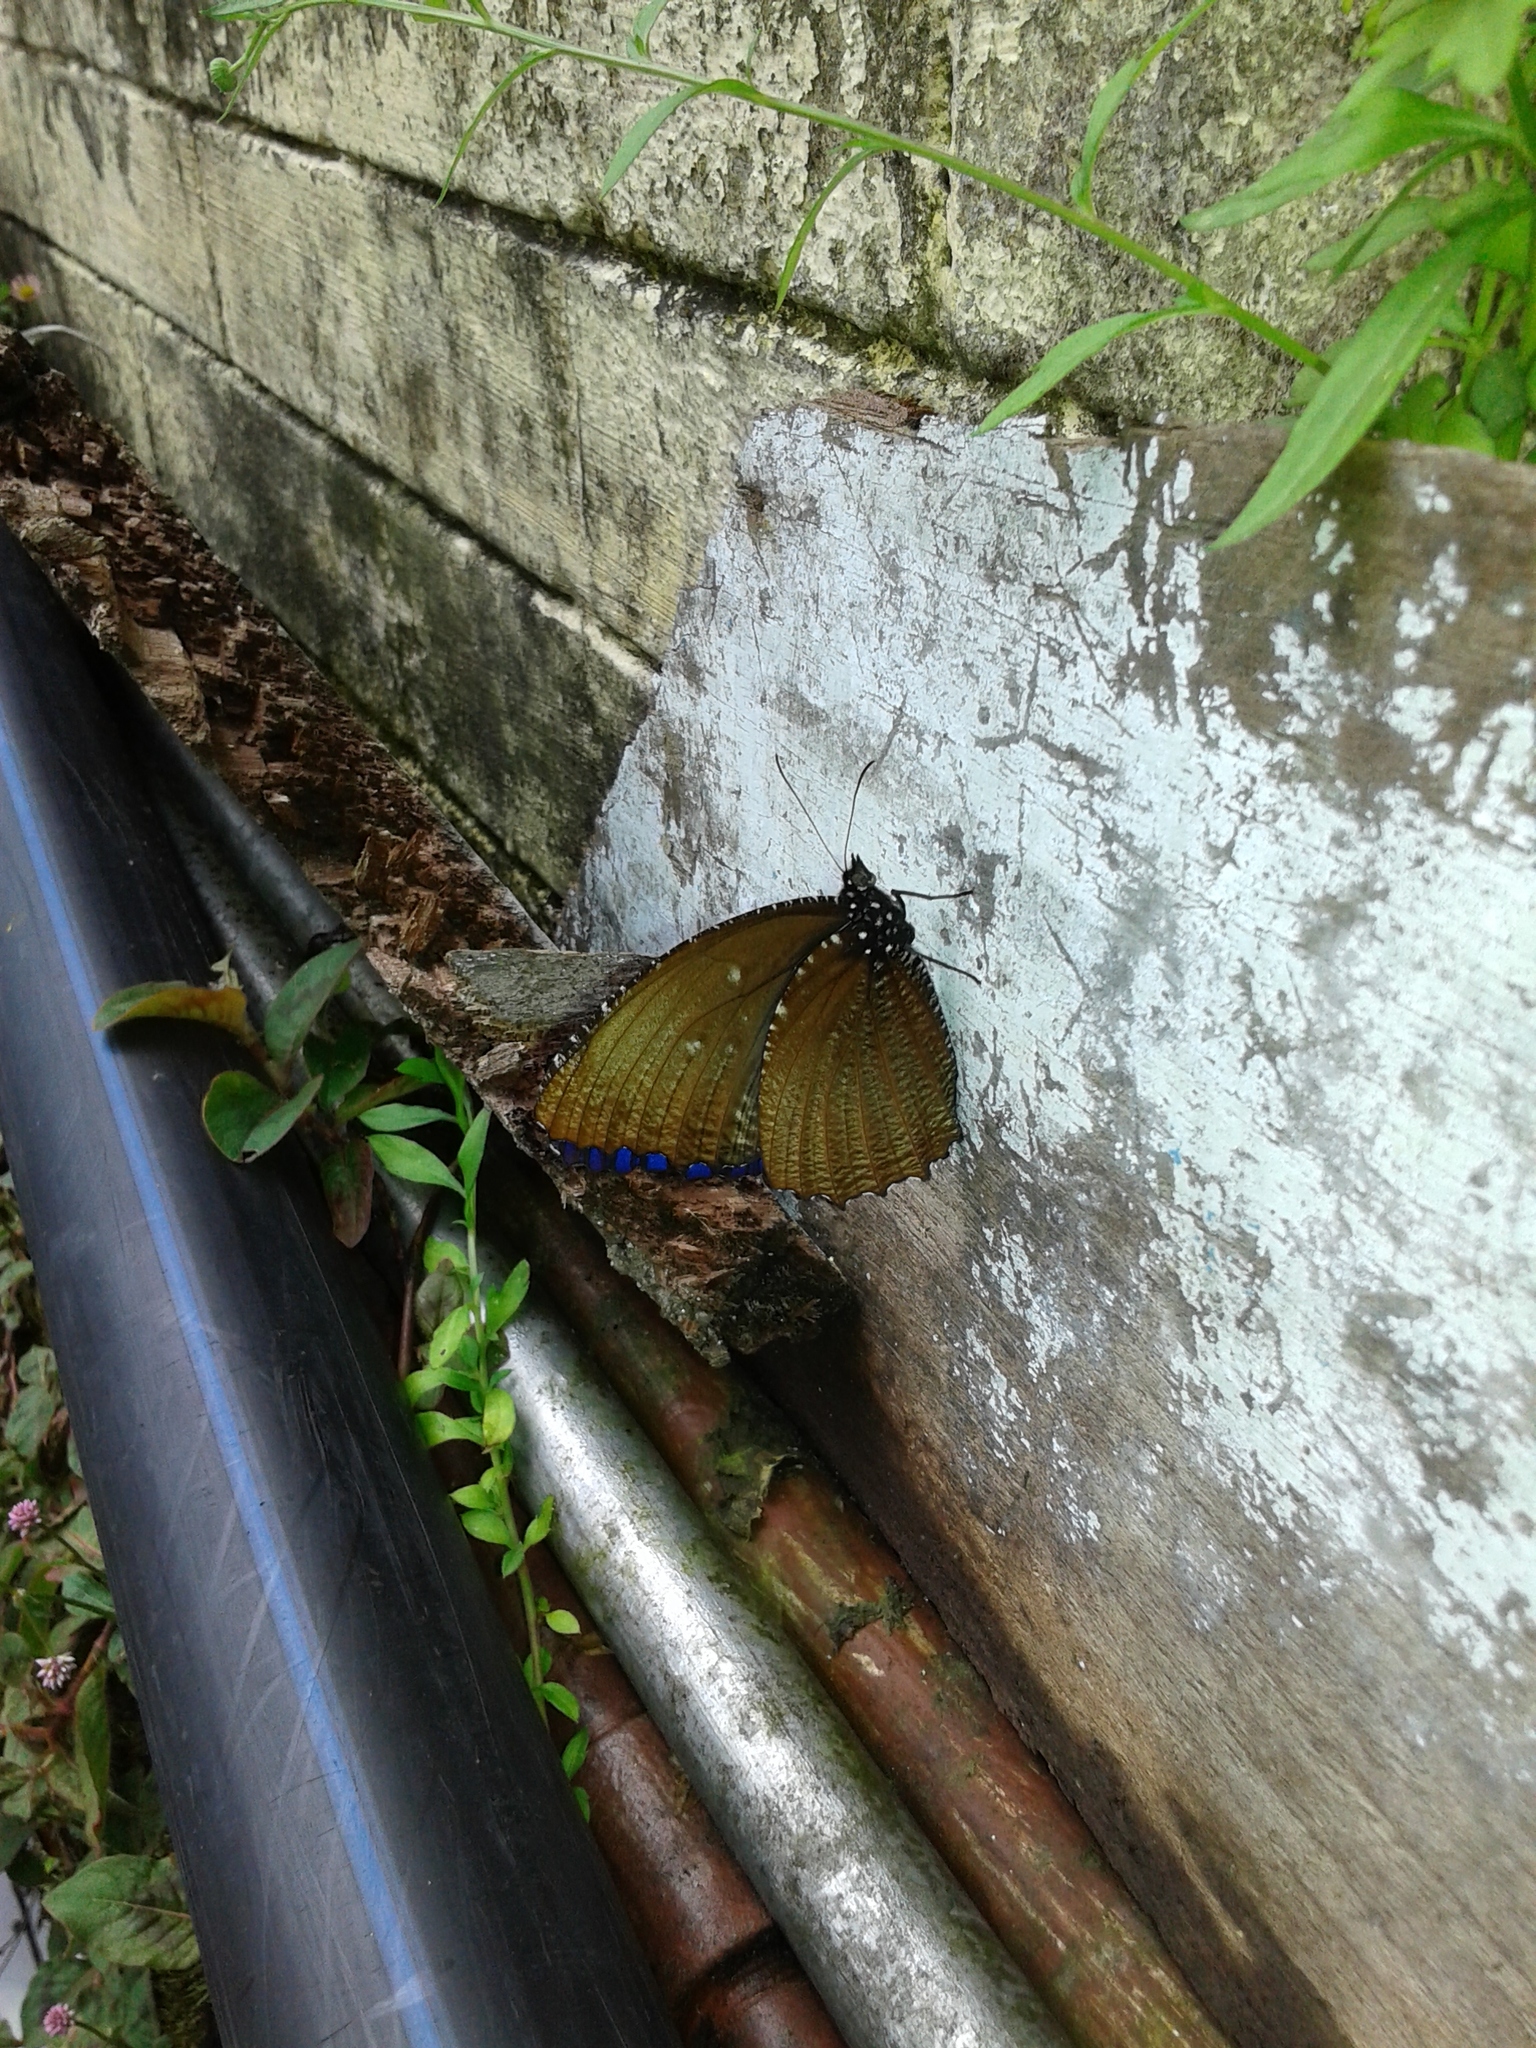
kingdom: Animalia
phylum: Arthropoda
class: Insecta
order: Lepidoptera
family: Nymphalidae
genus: Elymnias
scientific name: Elymnias malelas
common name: Spotted palmfly
